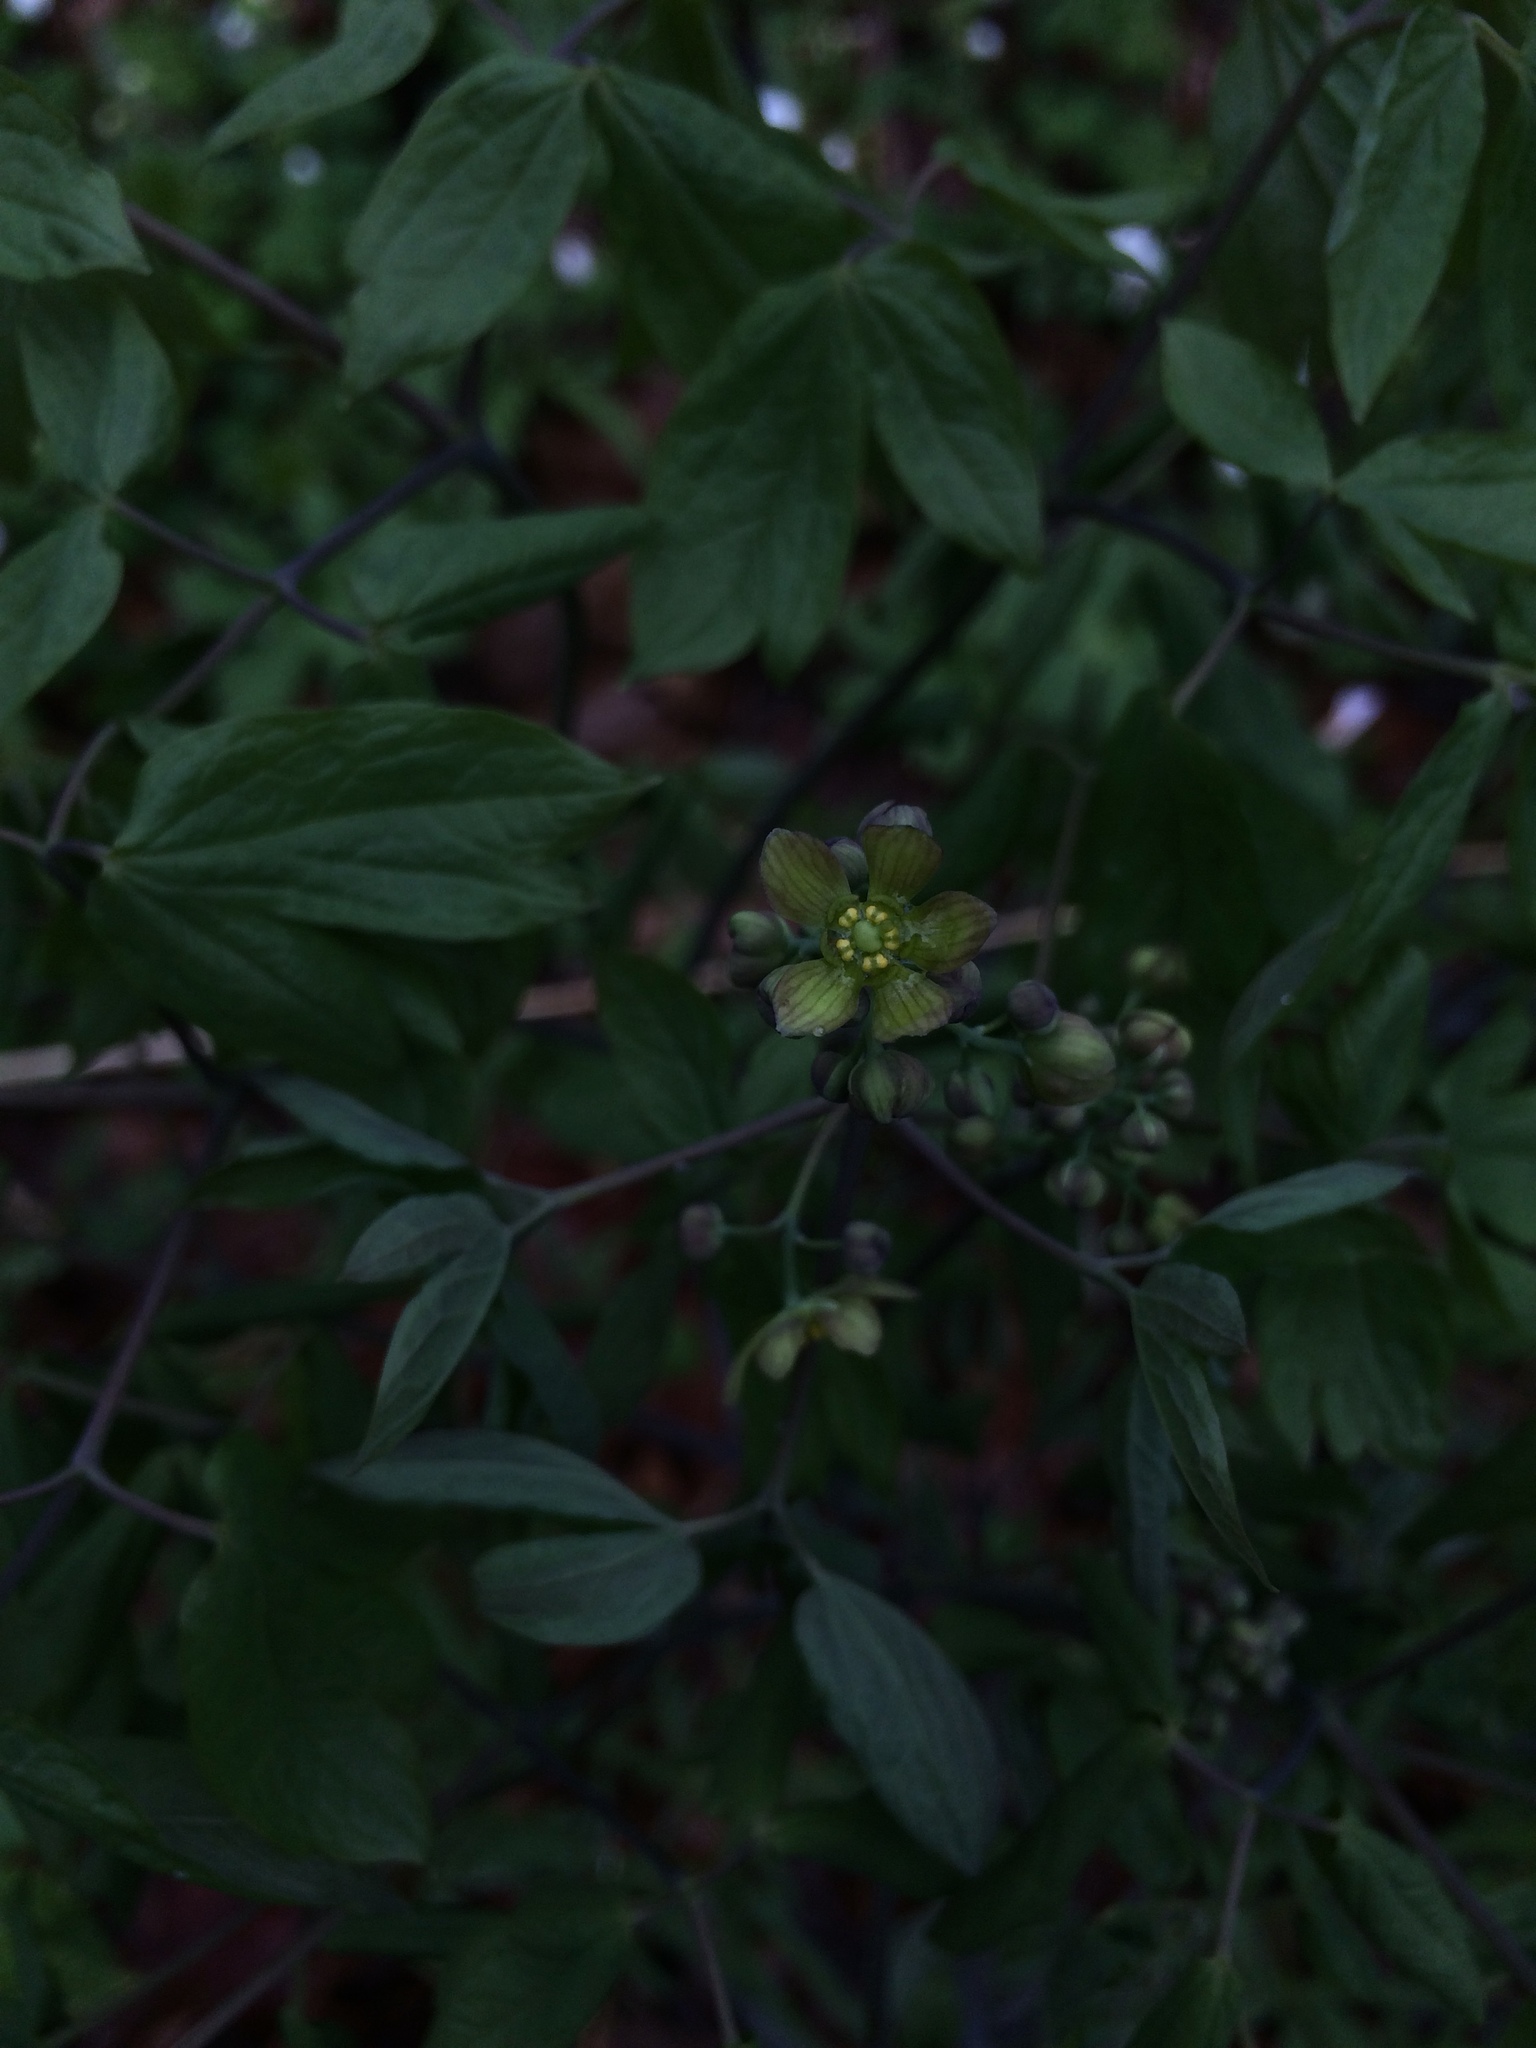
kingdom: Plantae
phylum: Tracheophyta
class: Magnoliopsida
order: Ranunculales
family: Berberidaceae
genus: Caulophyllum
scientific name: Caulophyllum thalictroides
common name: Blue cohosh
